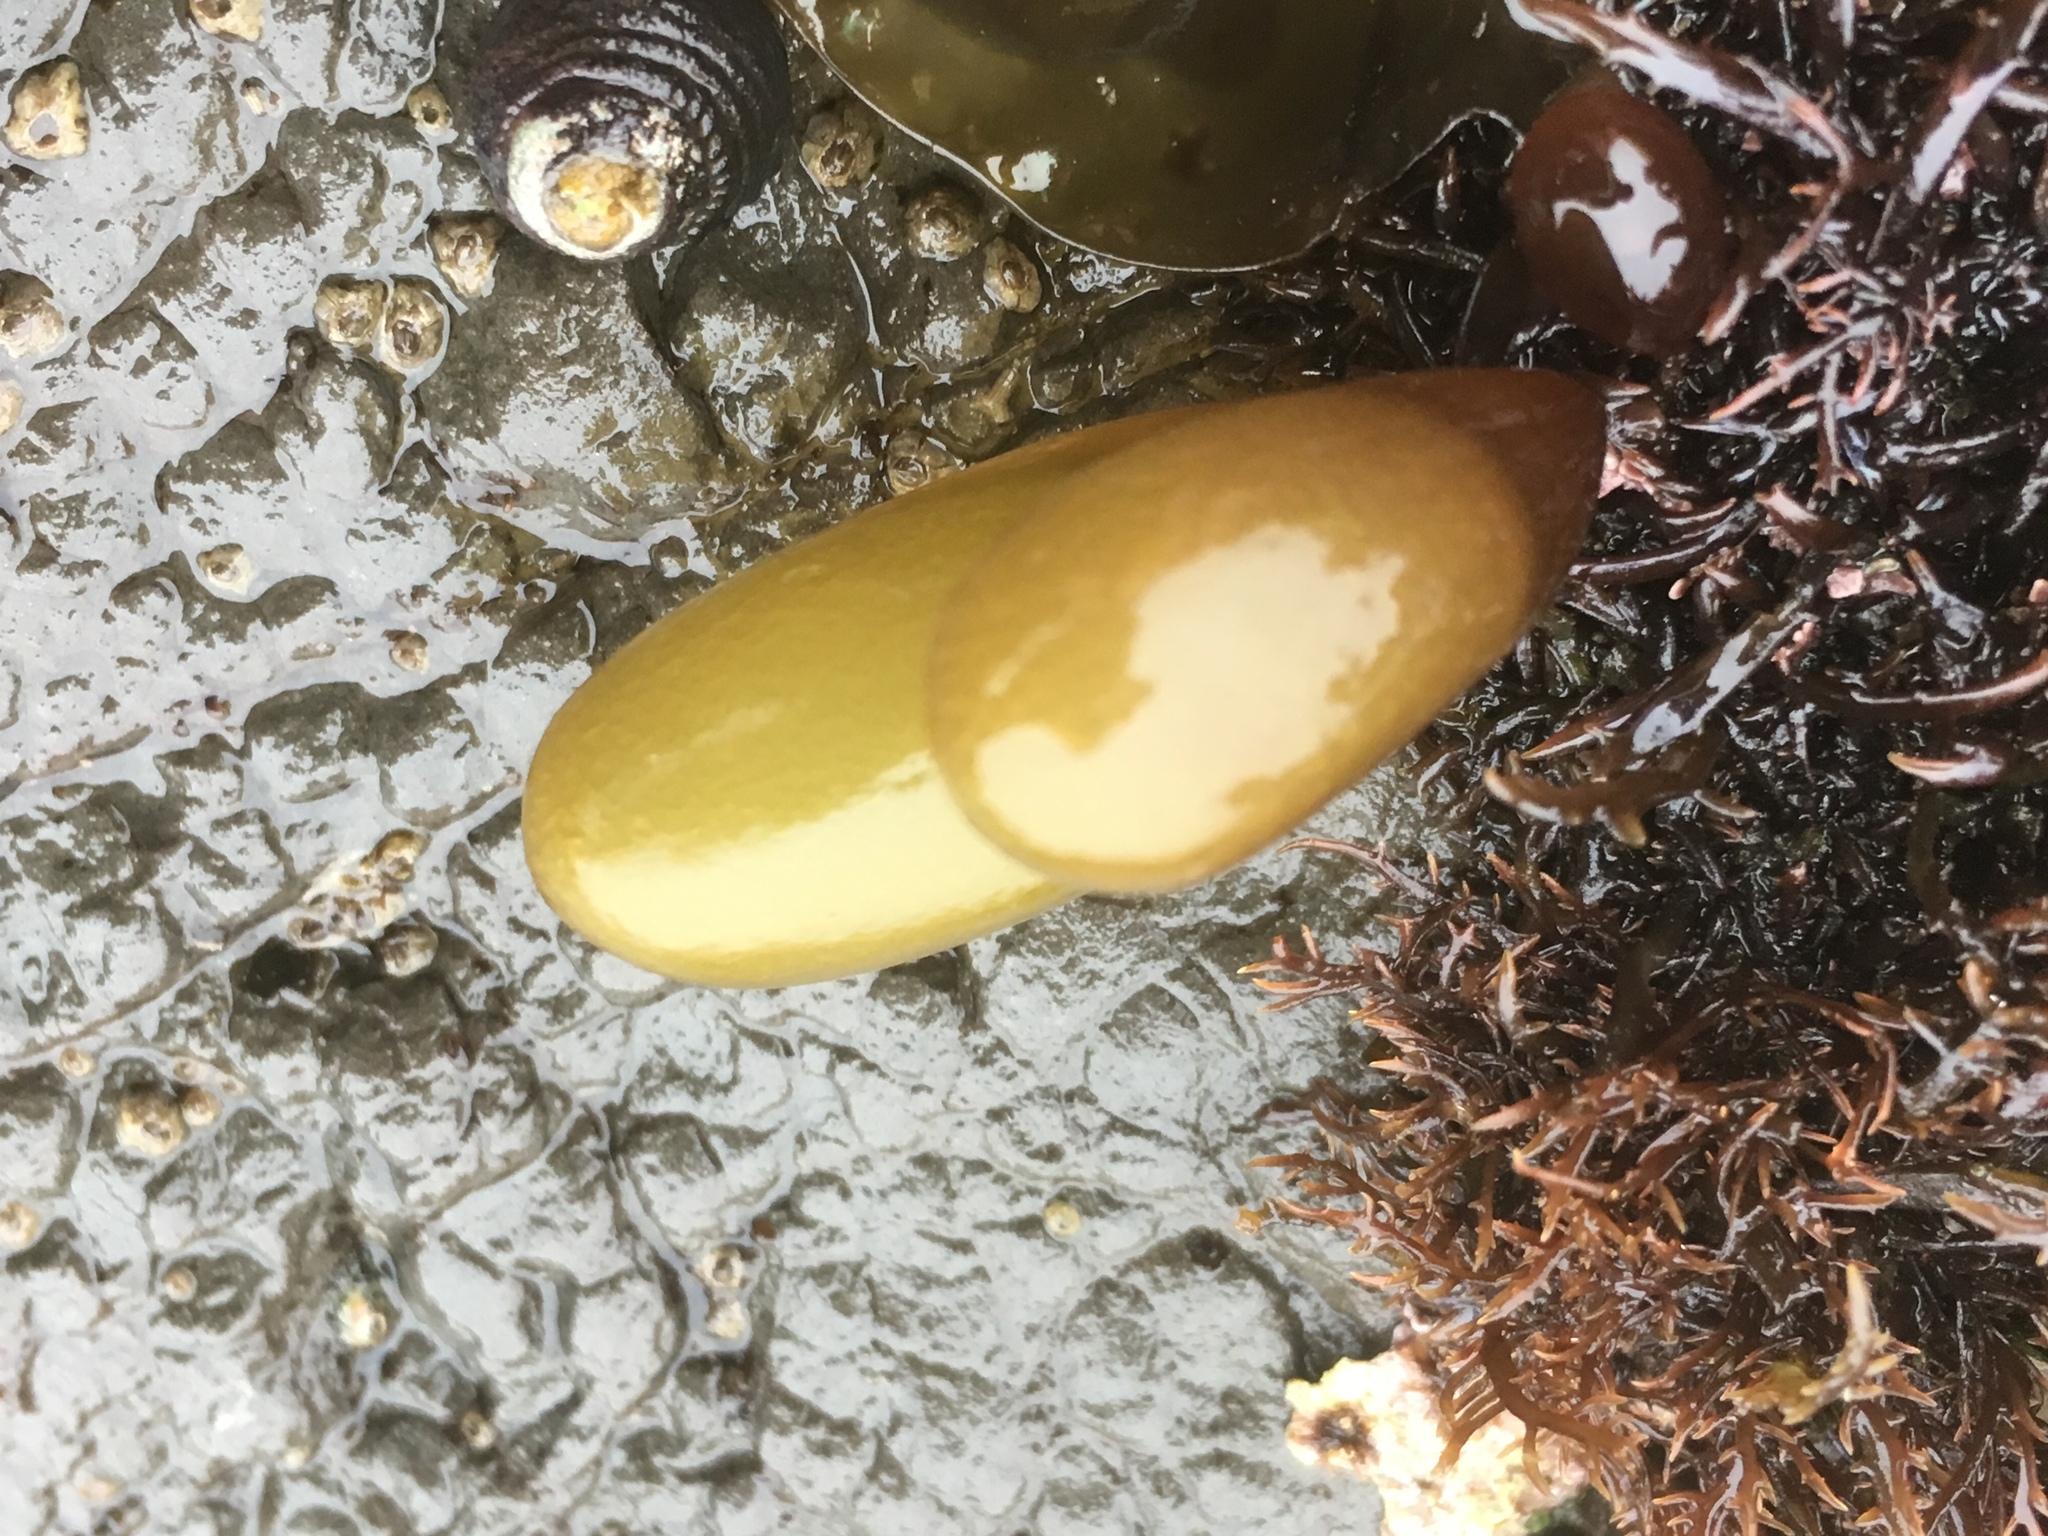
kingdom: Plantae
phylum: Rhodophyta
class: Florideophyceae
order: Palmariales
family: Palmariaceae
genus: Halosaccion
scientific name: Halosaccion glandiforme
